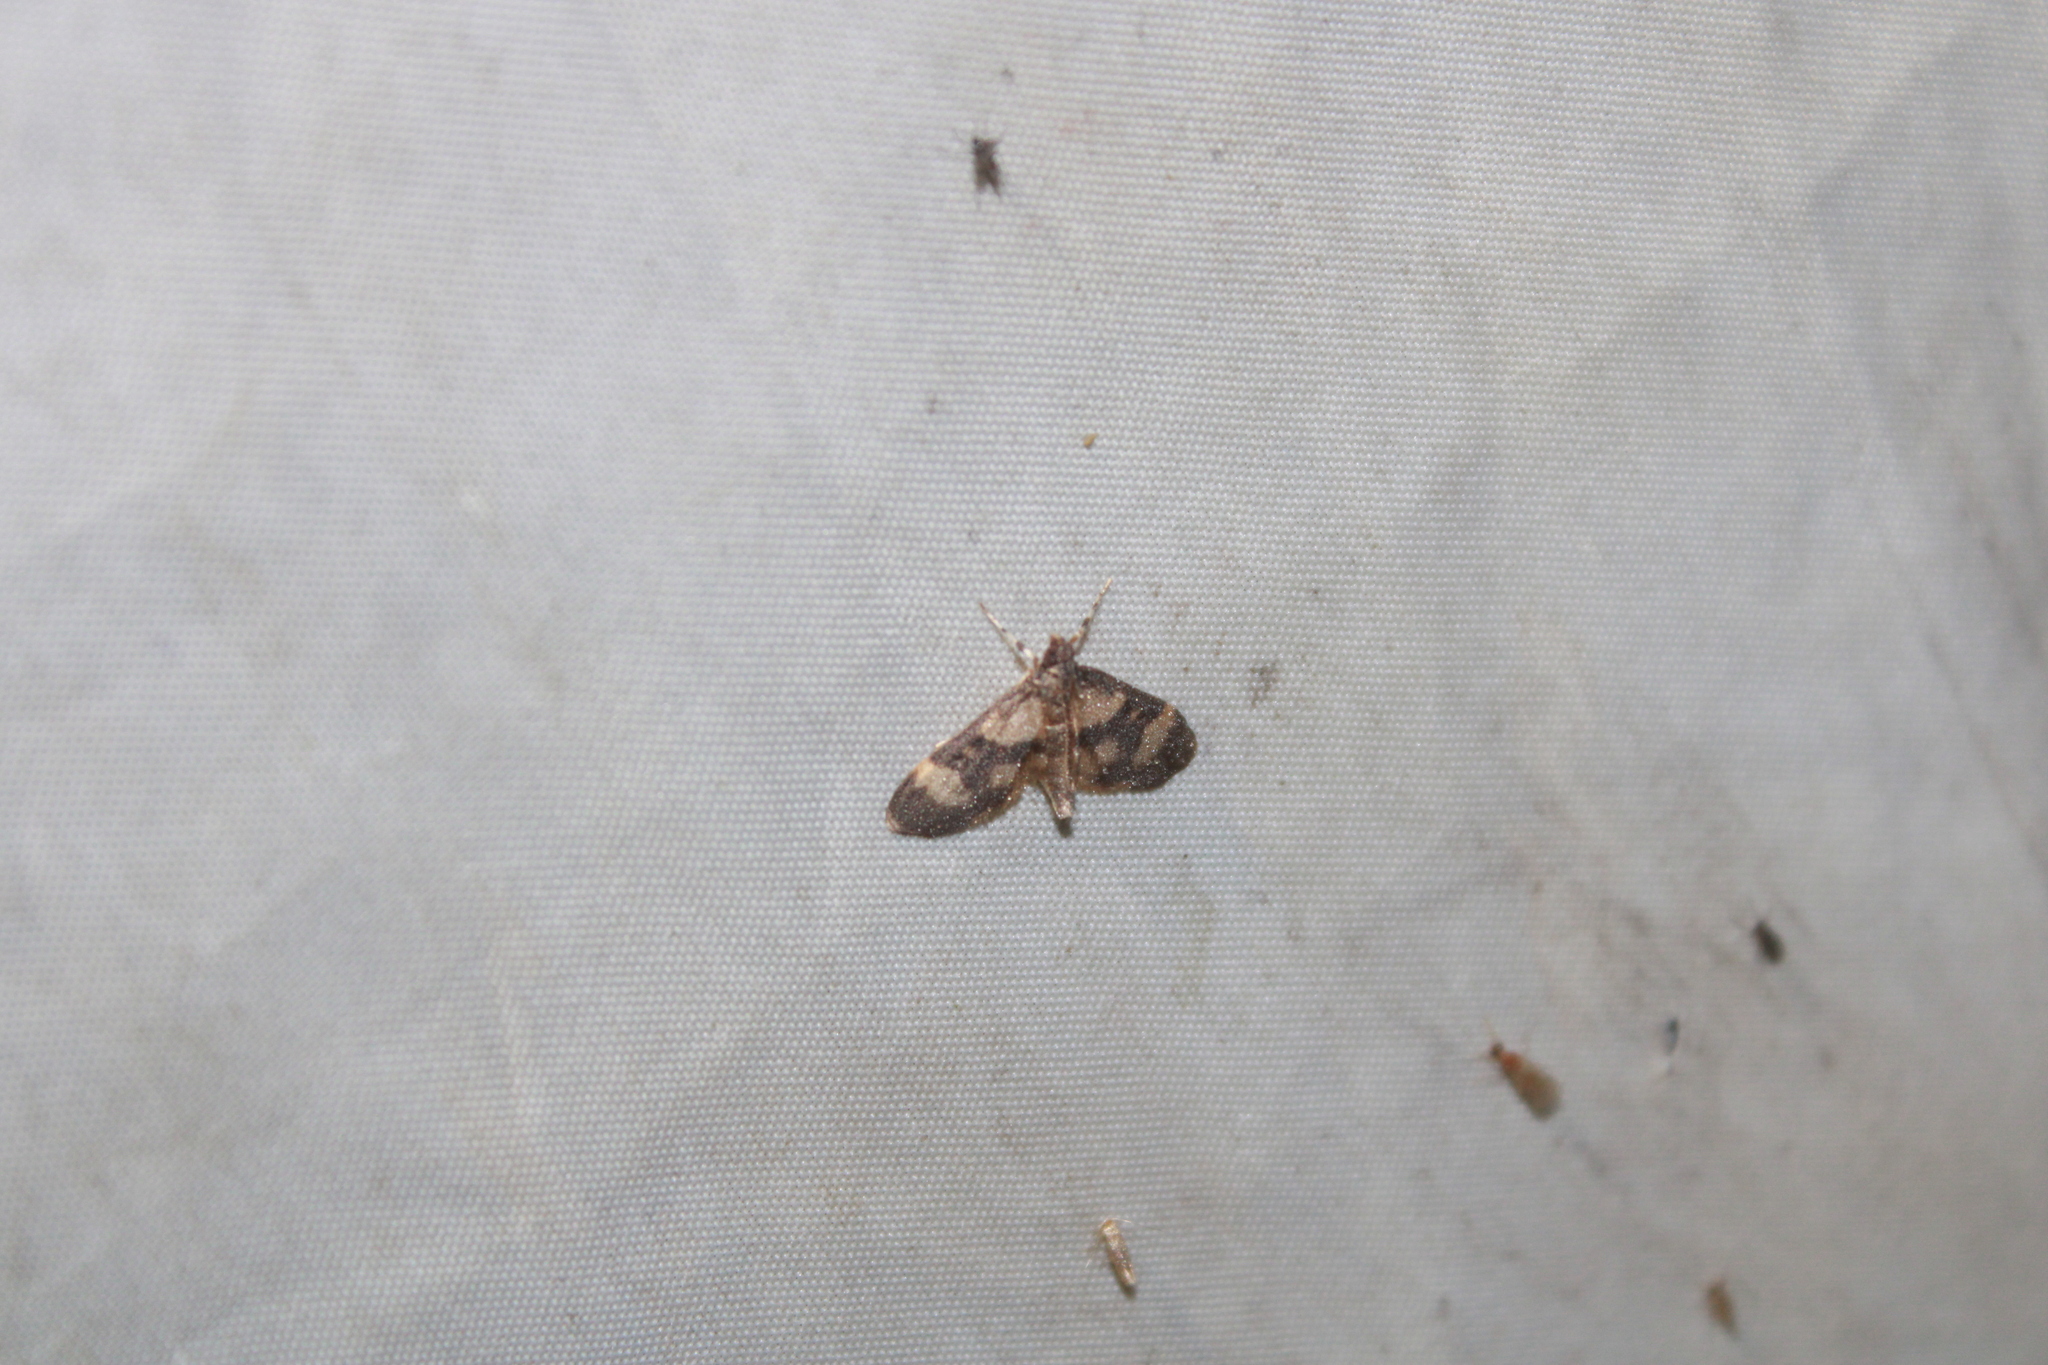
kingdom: Animalia
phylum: Arthropoda
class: Insecta
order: Lepidoptera
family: Crambidae
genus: Lygropia
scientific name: Lygropia fusalis
